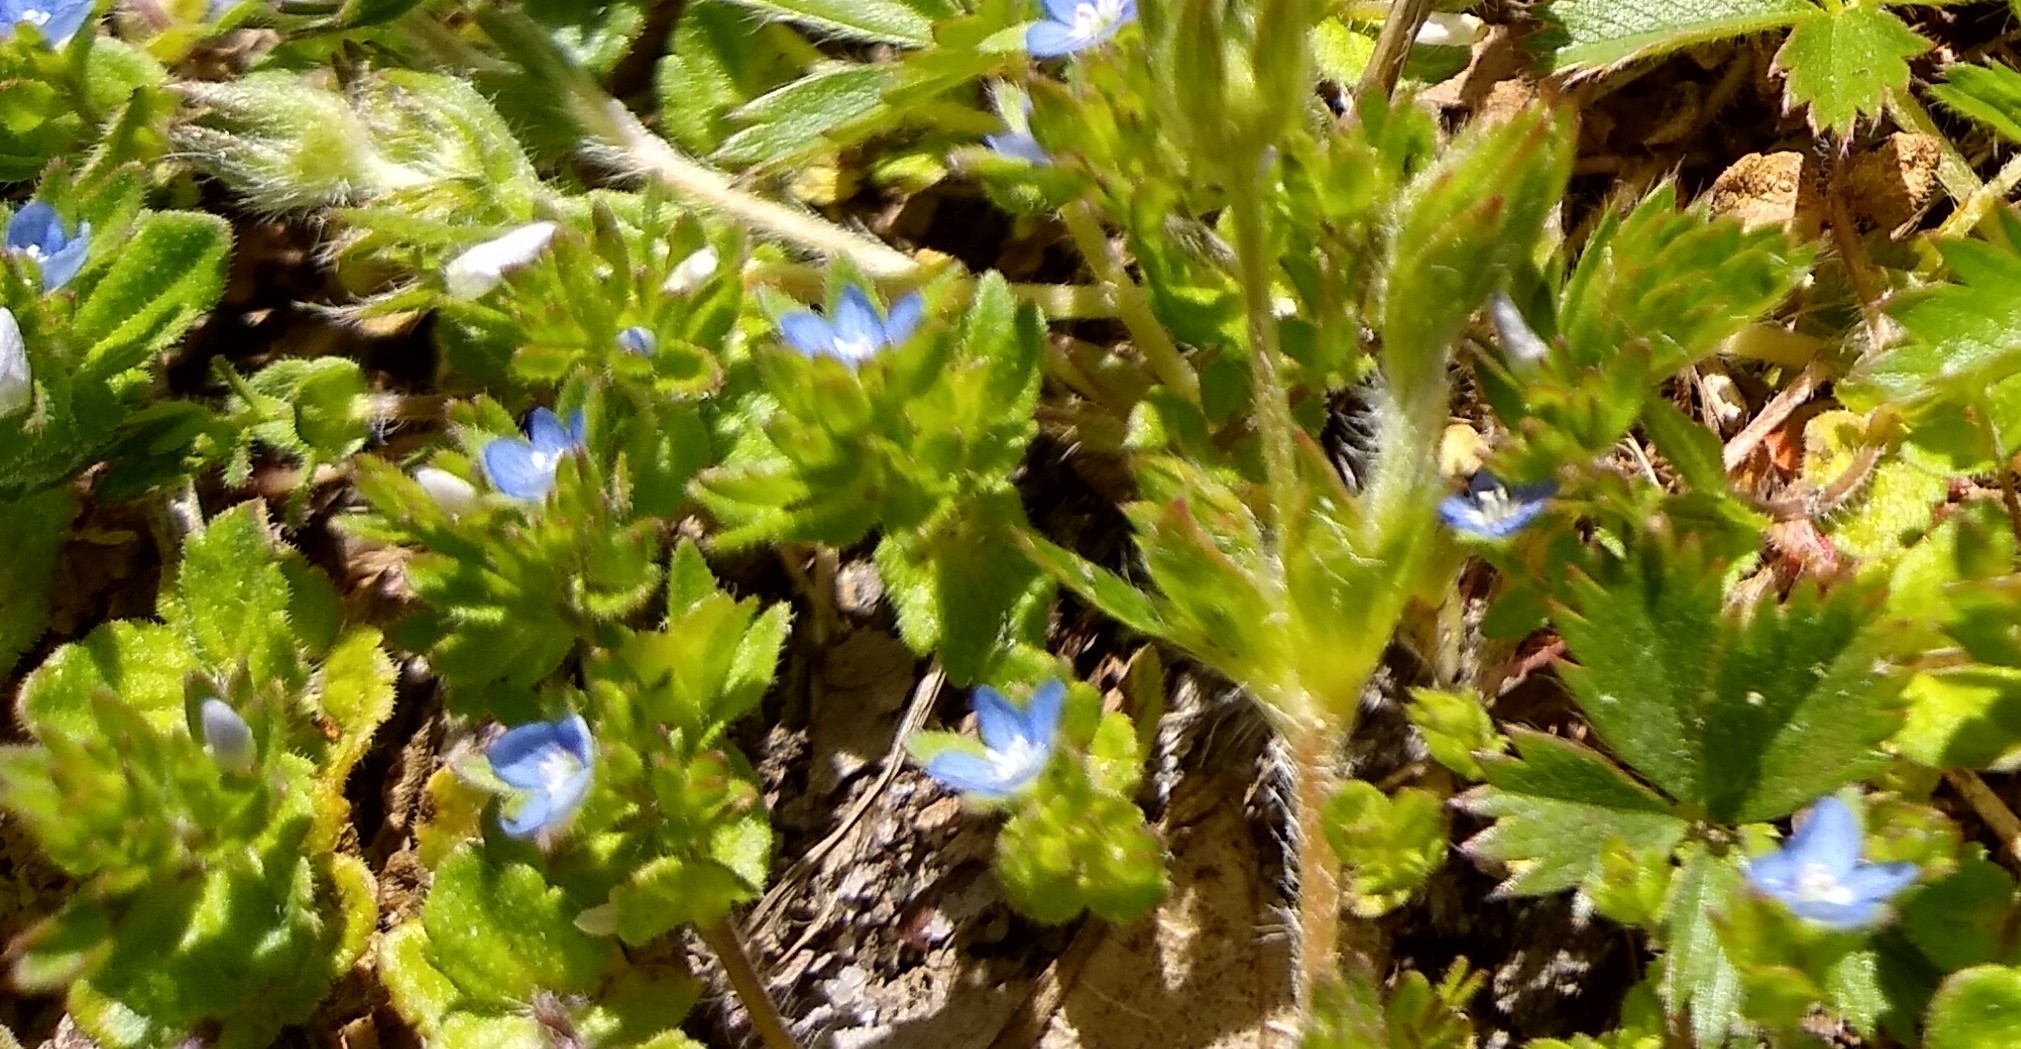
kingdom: Plantae
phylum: Tracheophyta
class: Magnoliopsida
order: Lamiales
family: Plantaginaceae
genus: Veronica
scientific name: Veronica arvensis
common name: Corn speedwell
